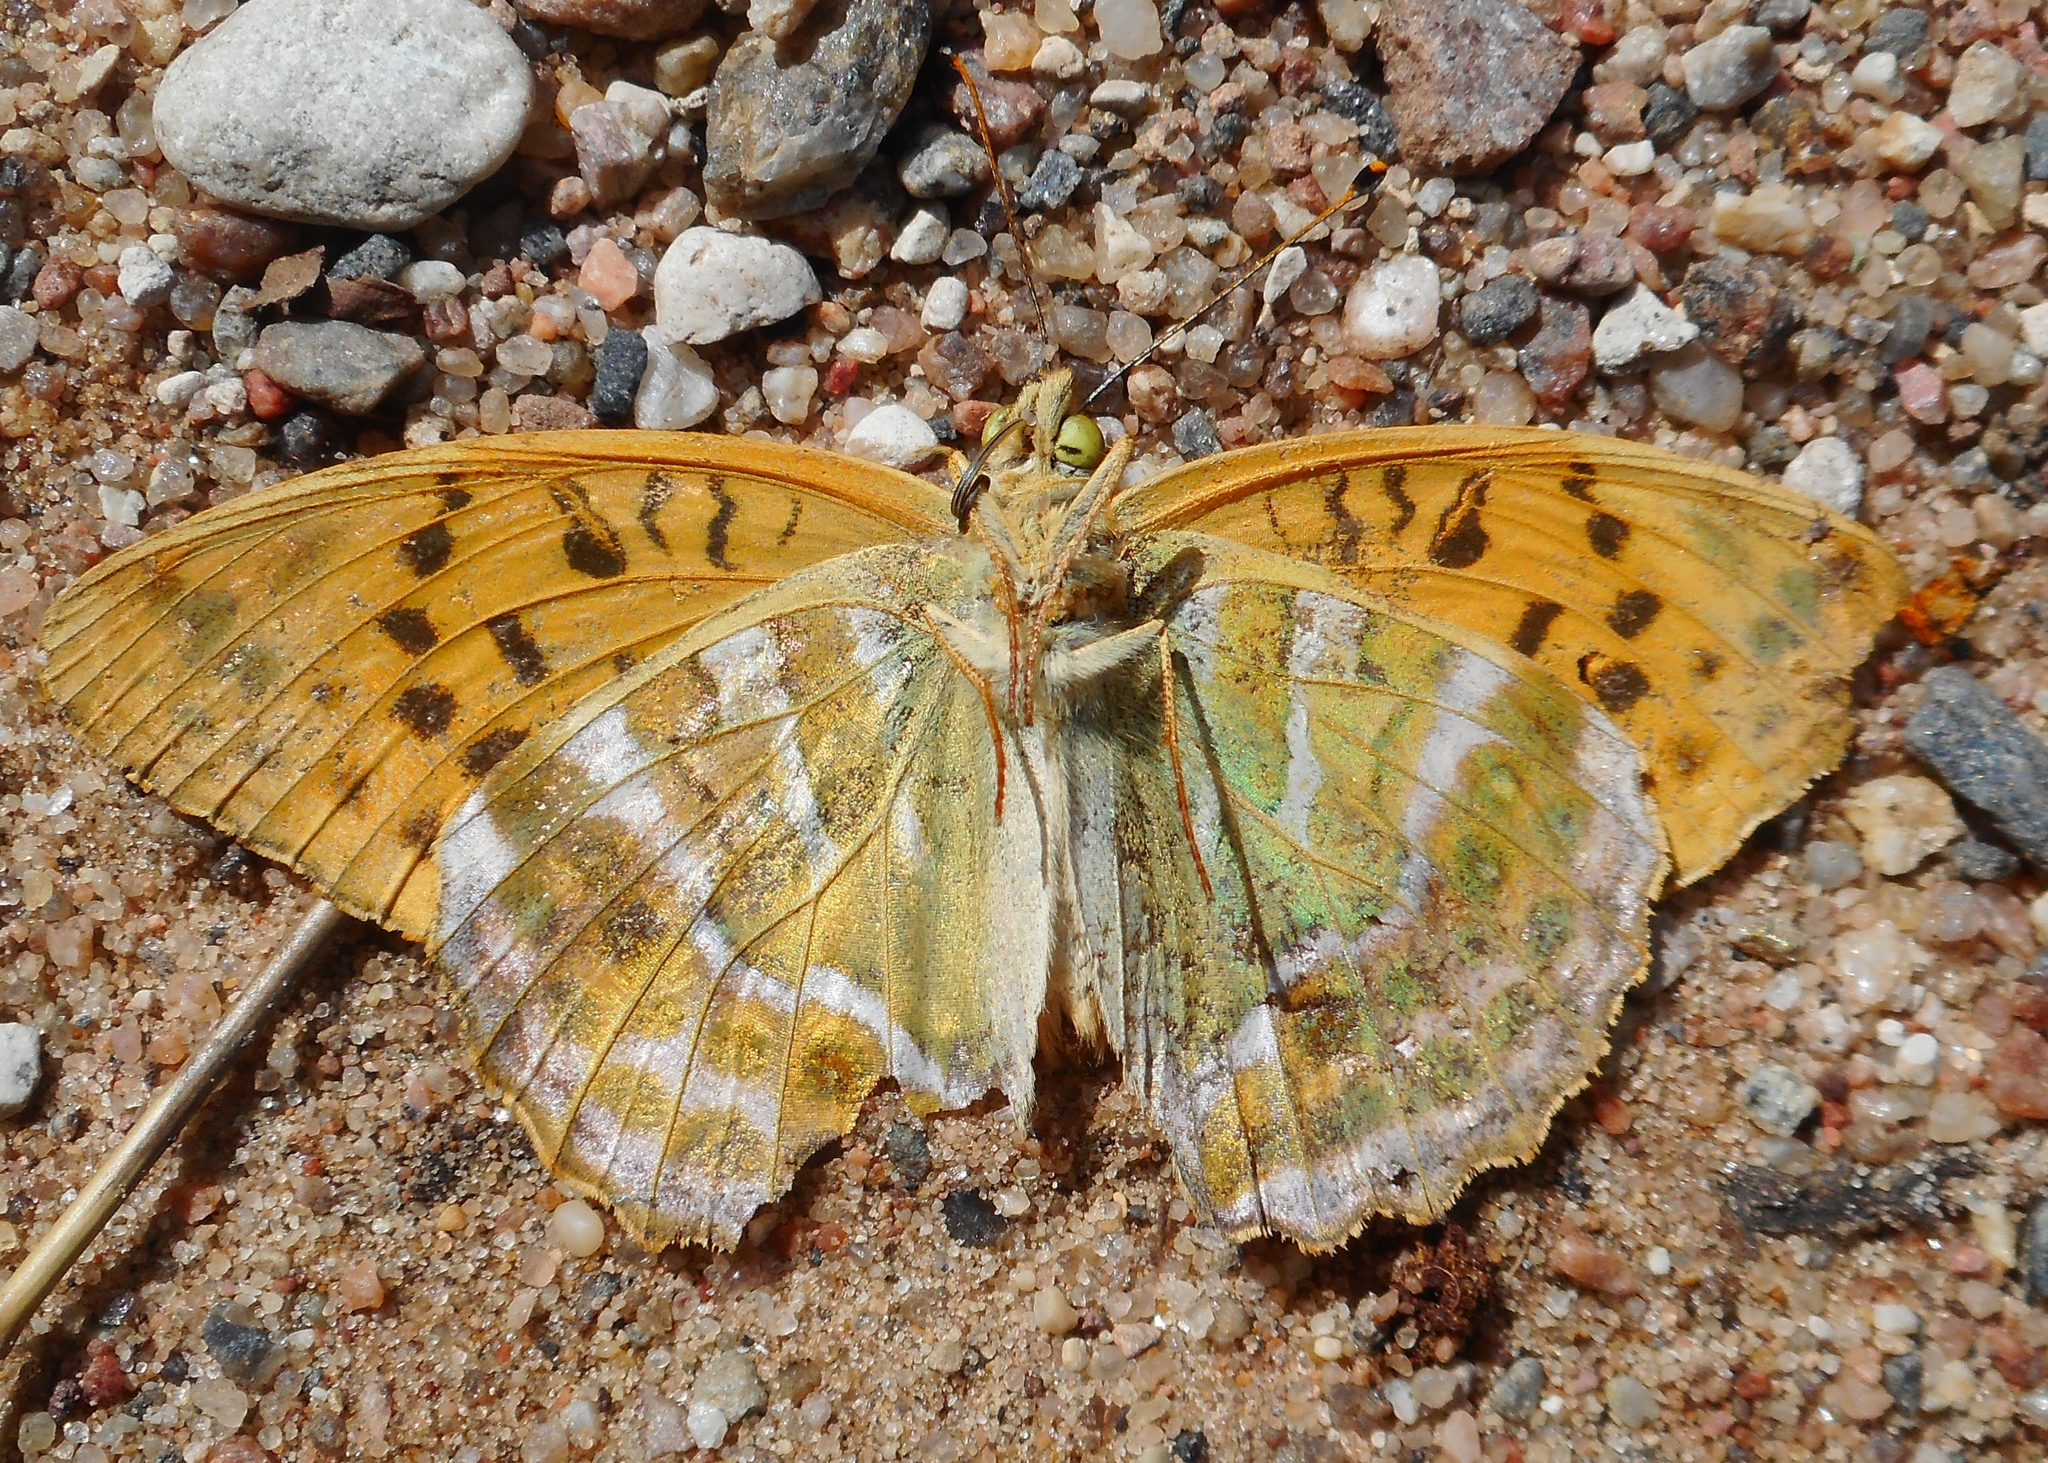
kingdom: Animalia
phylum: Arthropoda
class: Insecta
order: Lepidoptera
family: Nymphalidae
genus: Argynnis
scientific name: Argynnis paphia
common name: Silver-washed fritillary
